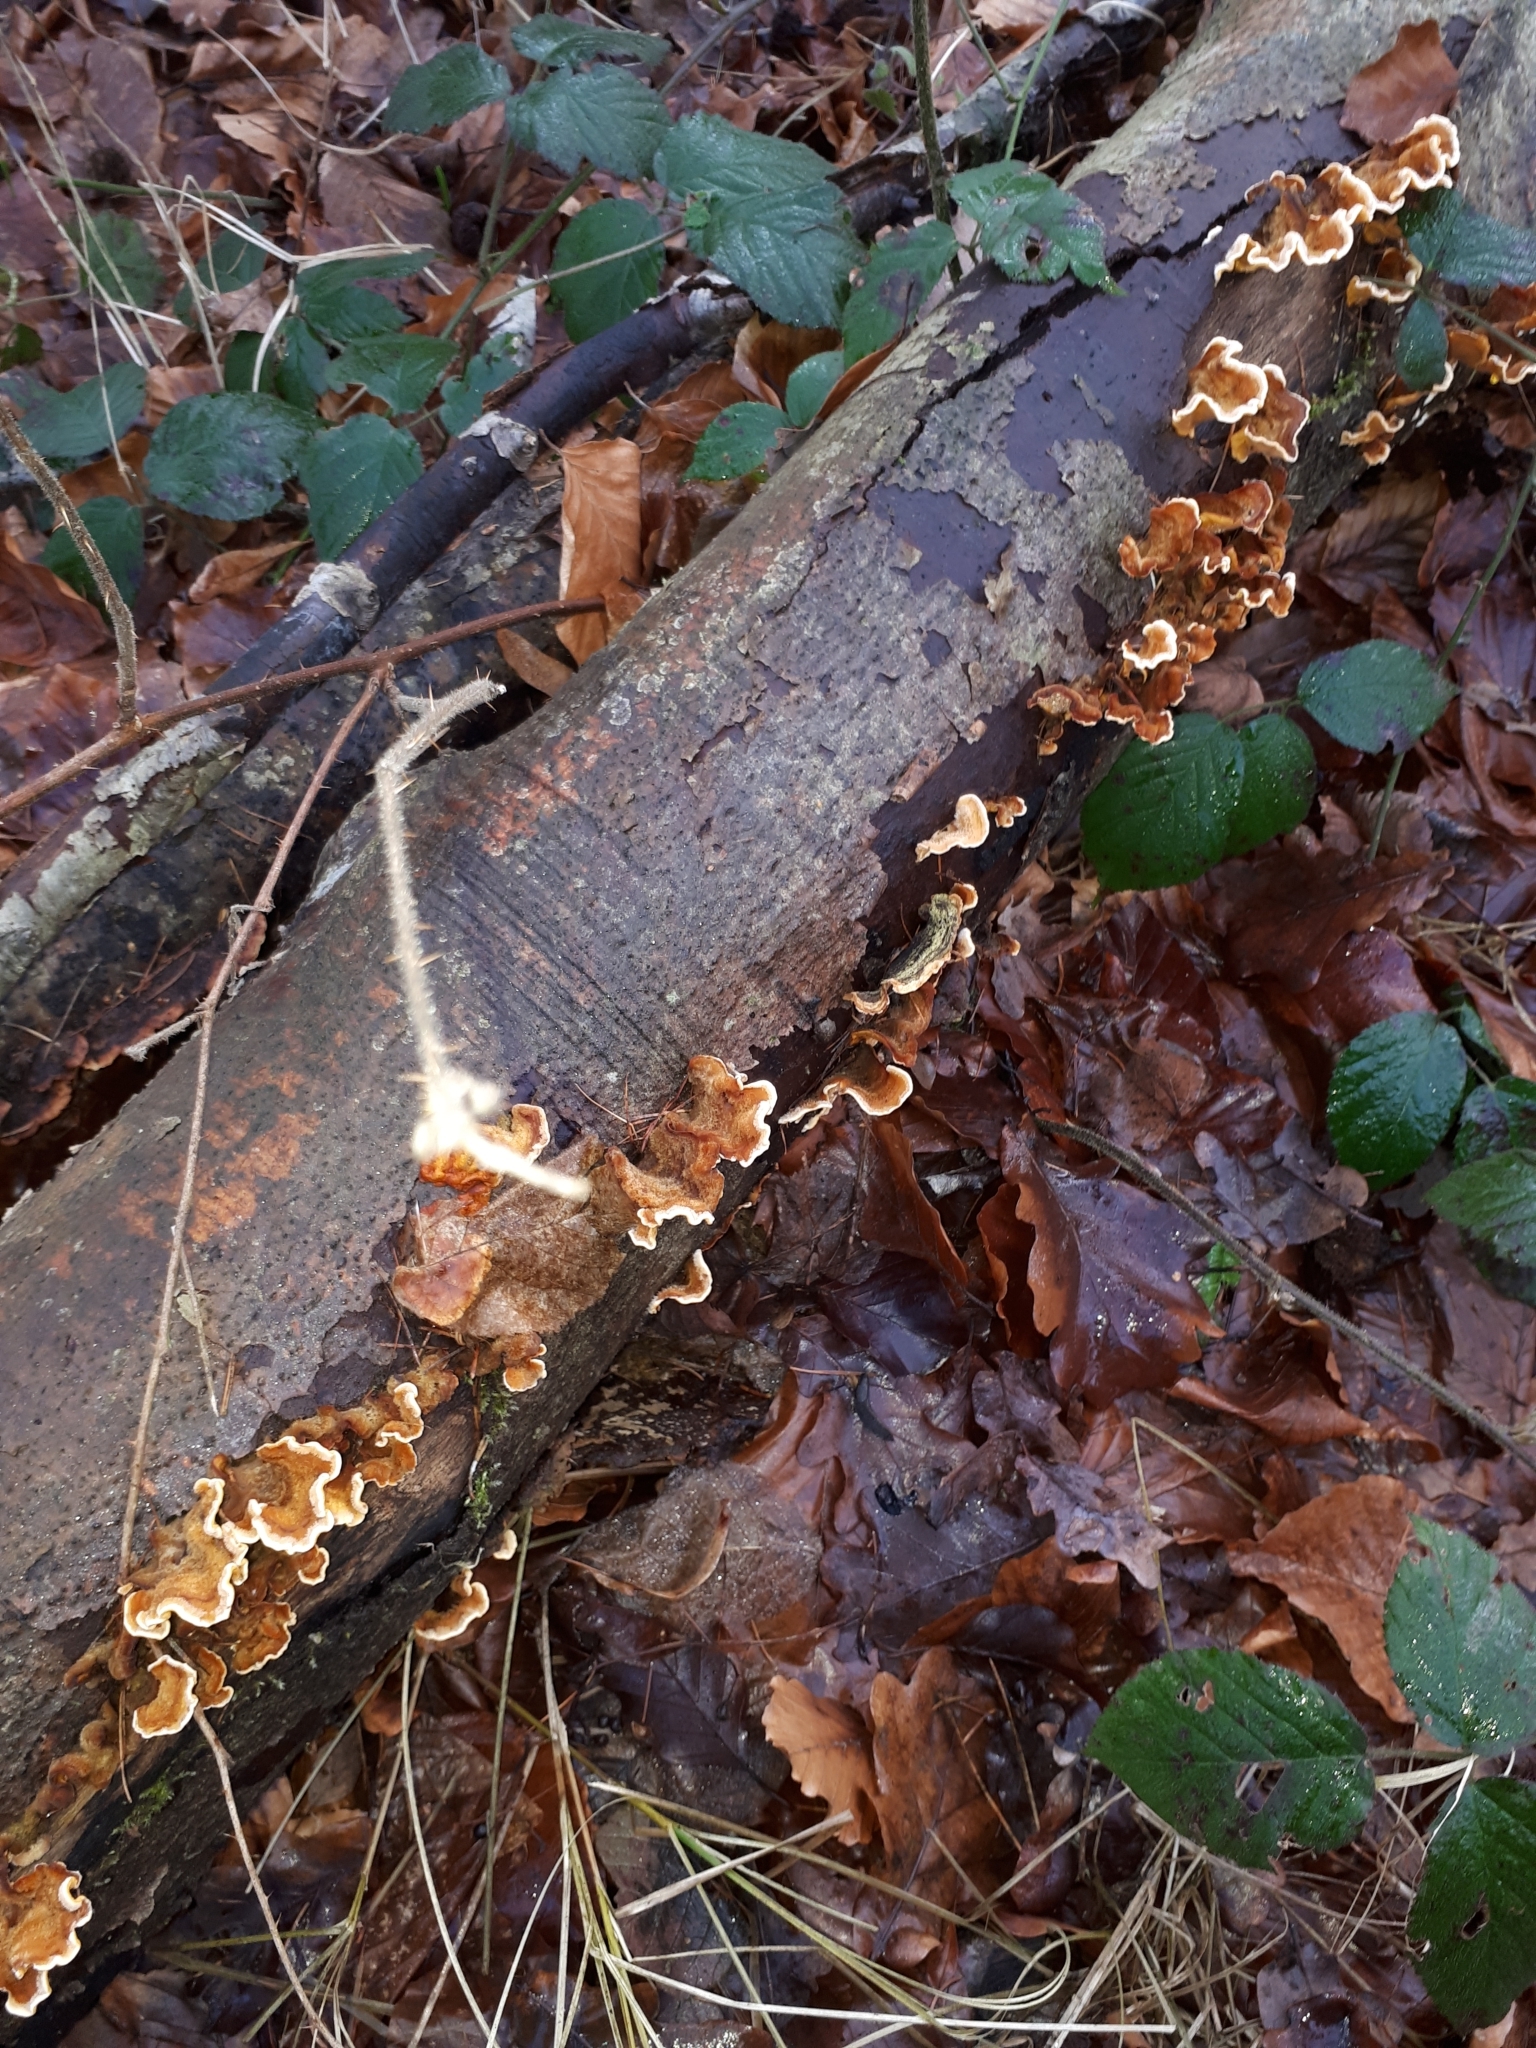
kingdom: Fungi
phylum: Basidiomycota
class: Agaricomycetes
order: Russulales
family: Stereaceae
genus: Stereum
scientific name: Stereum hirsutum
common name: Hairy curtain crust
